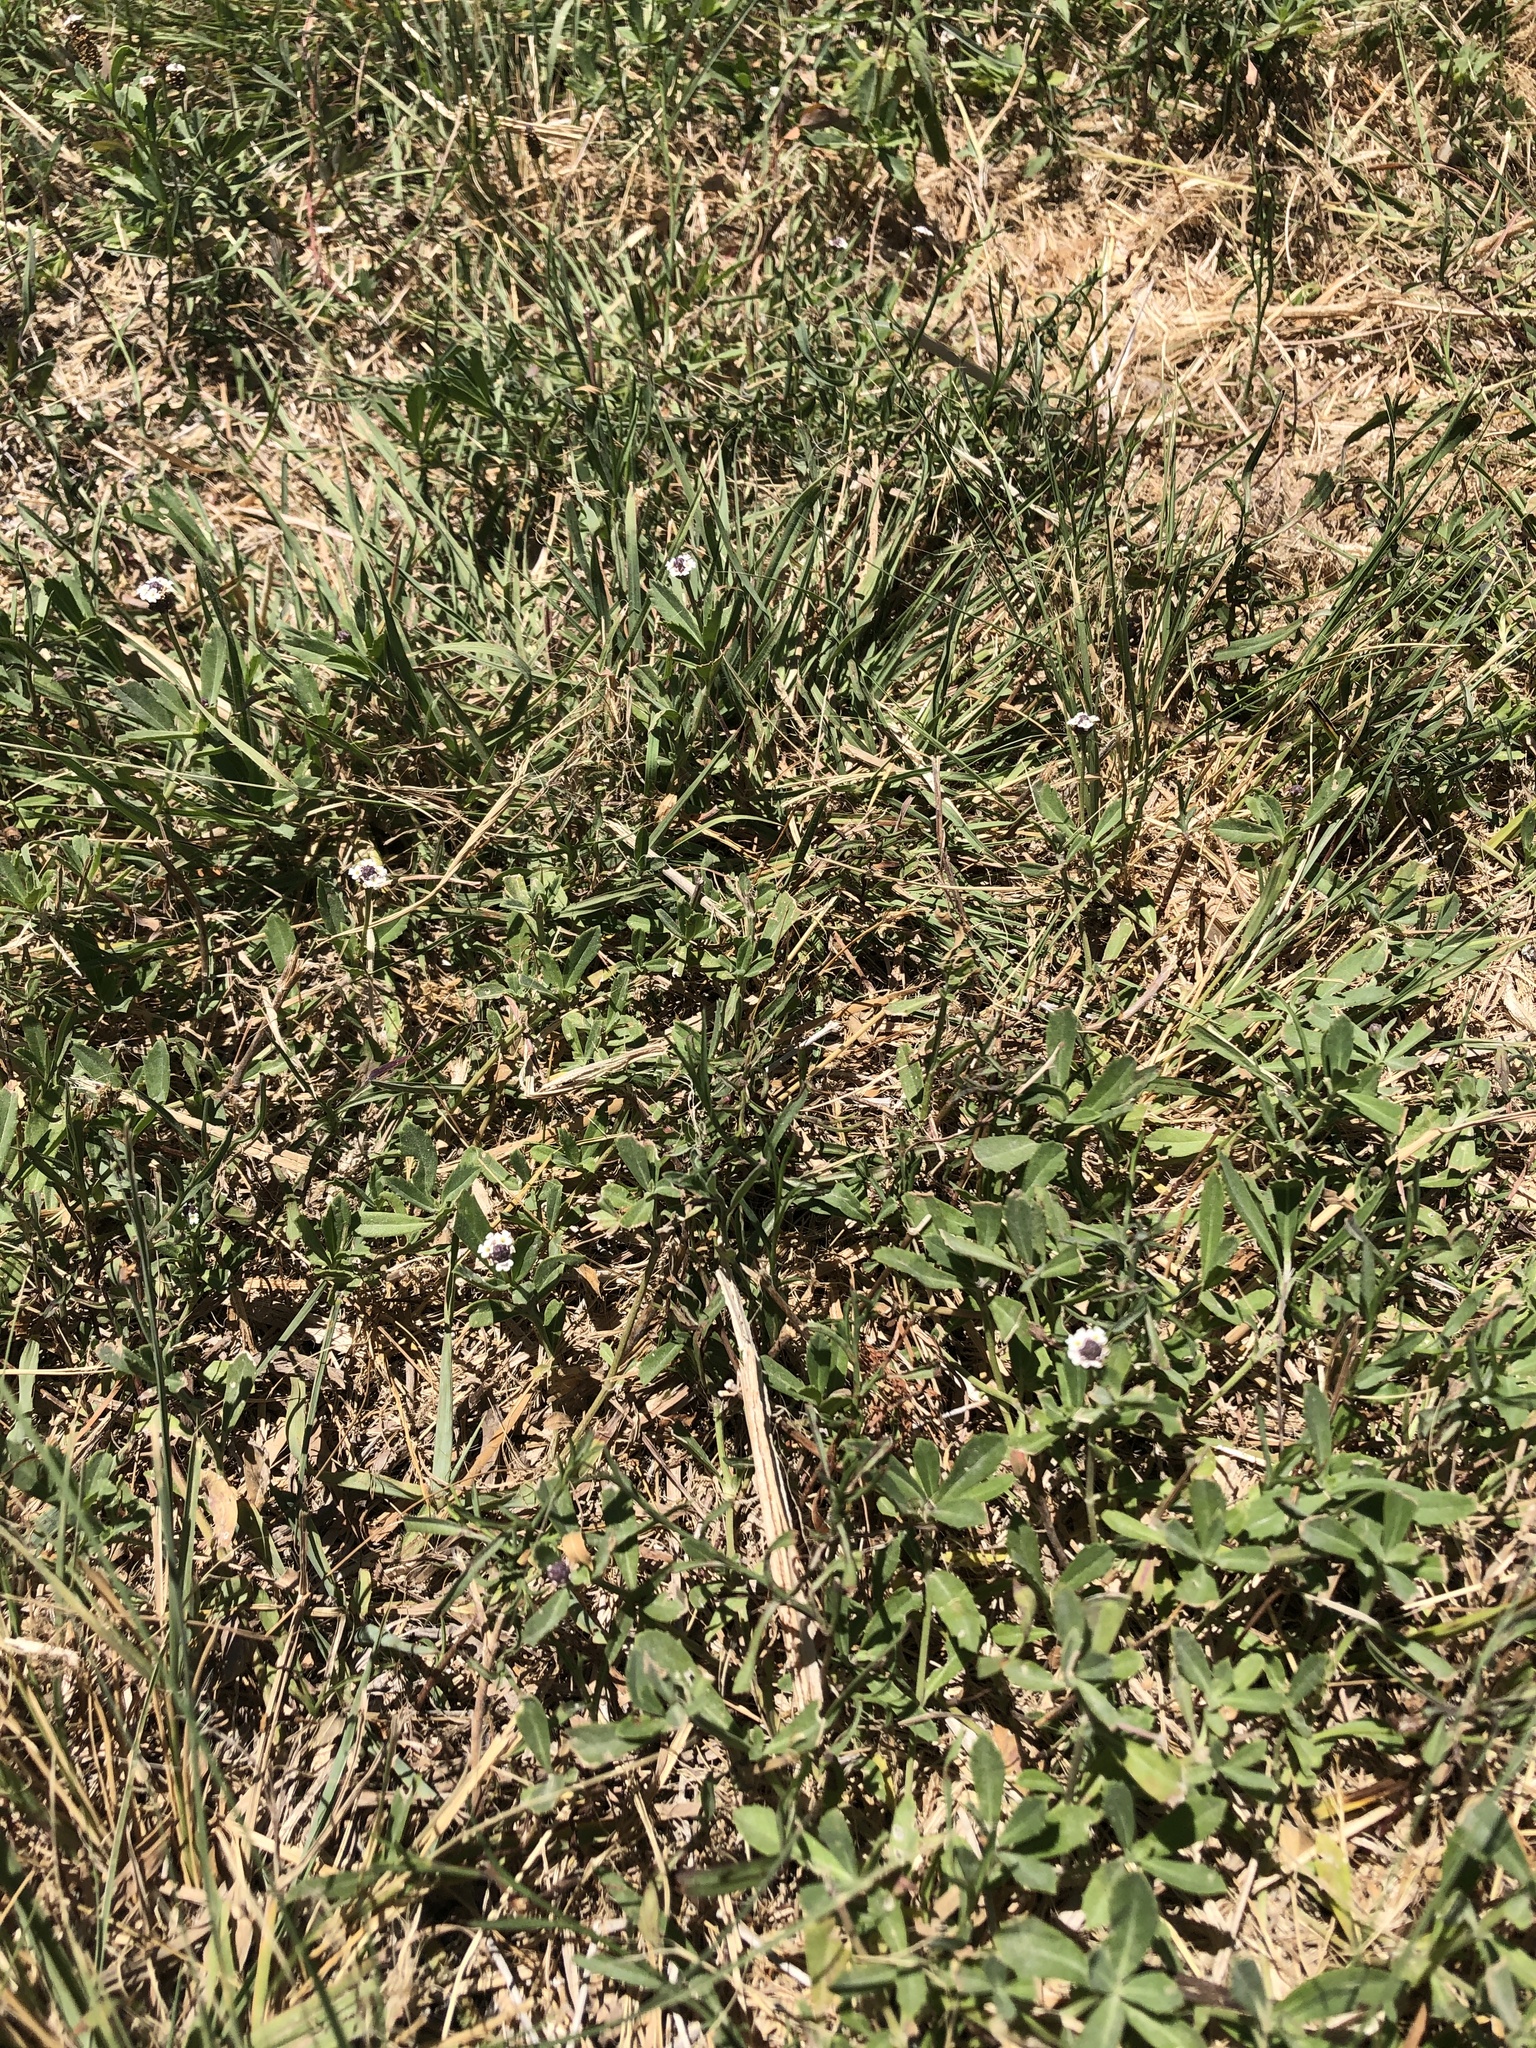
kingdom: Plantae
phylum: Tracheophyta
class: Magnoliopsida
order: Lamiales
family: Verbenaceae
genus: Phyla
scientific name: Phyla nodiflora
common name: Frogfruit
